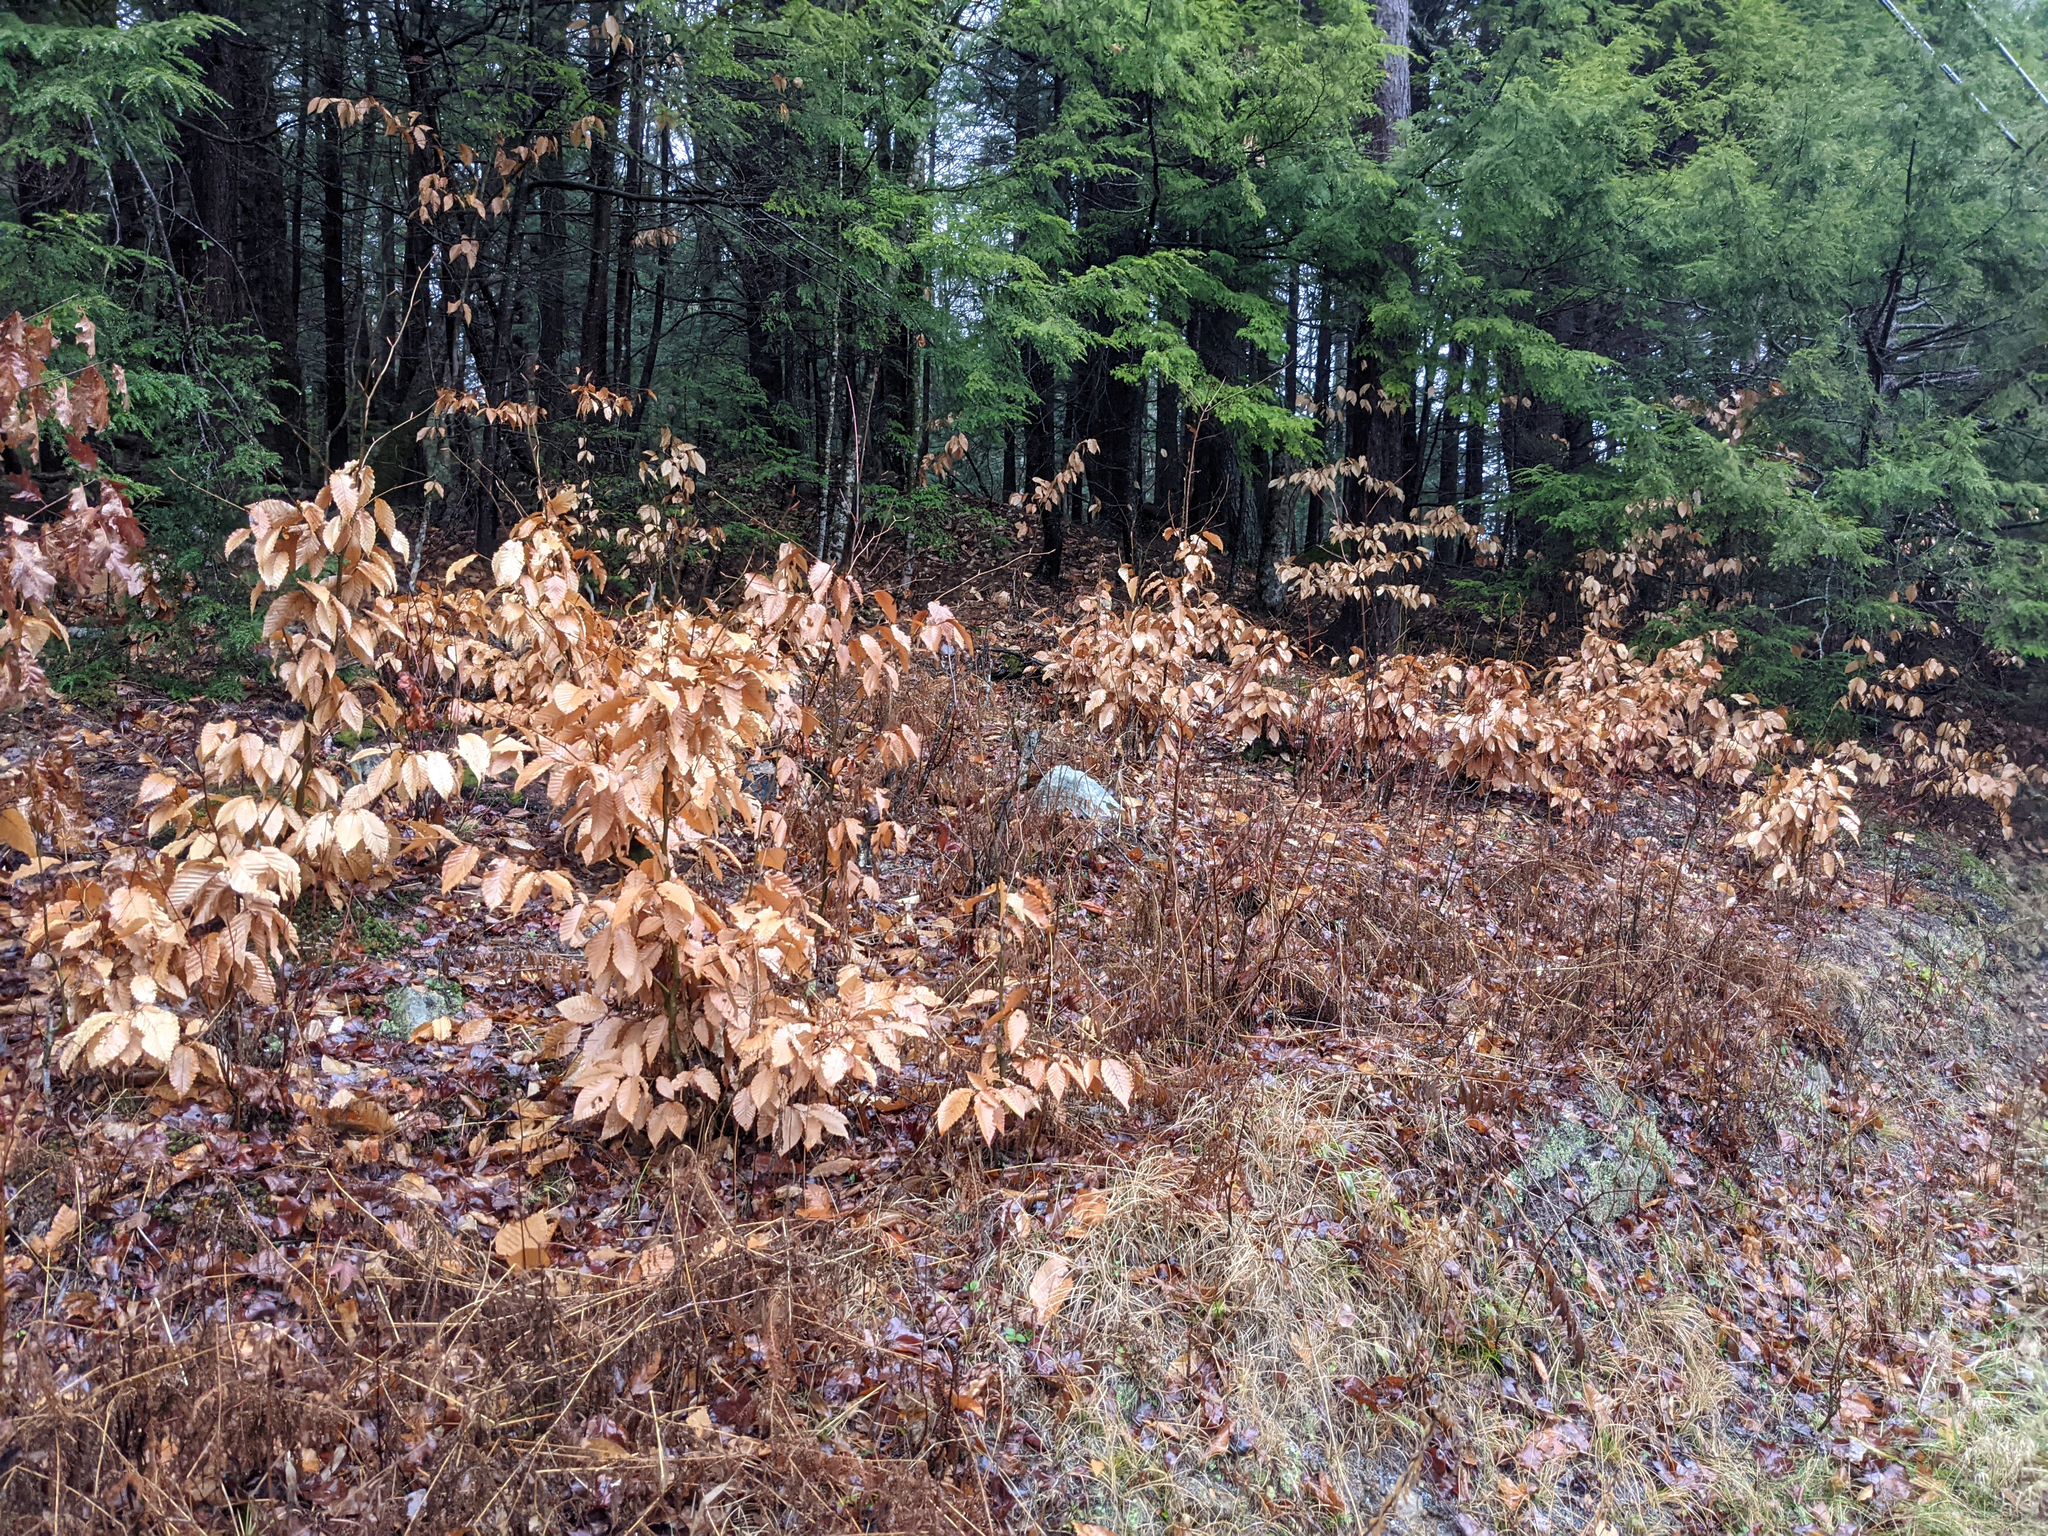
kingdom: Plantae
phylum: Tracheophyta
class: Magnoliopsida
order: Fagales
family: Fagaceae
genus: Fagus
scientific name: Fagus grandifolia
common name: American beech
